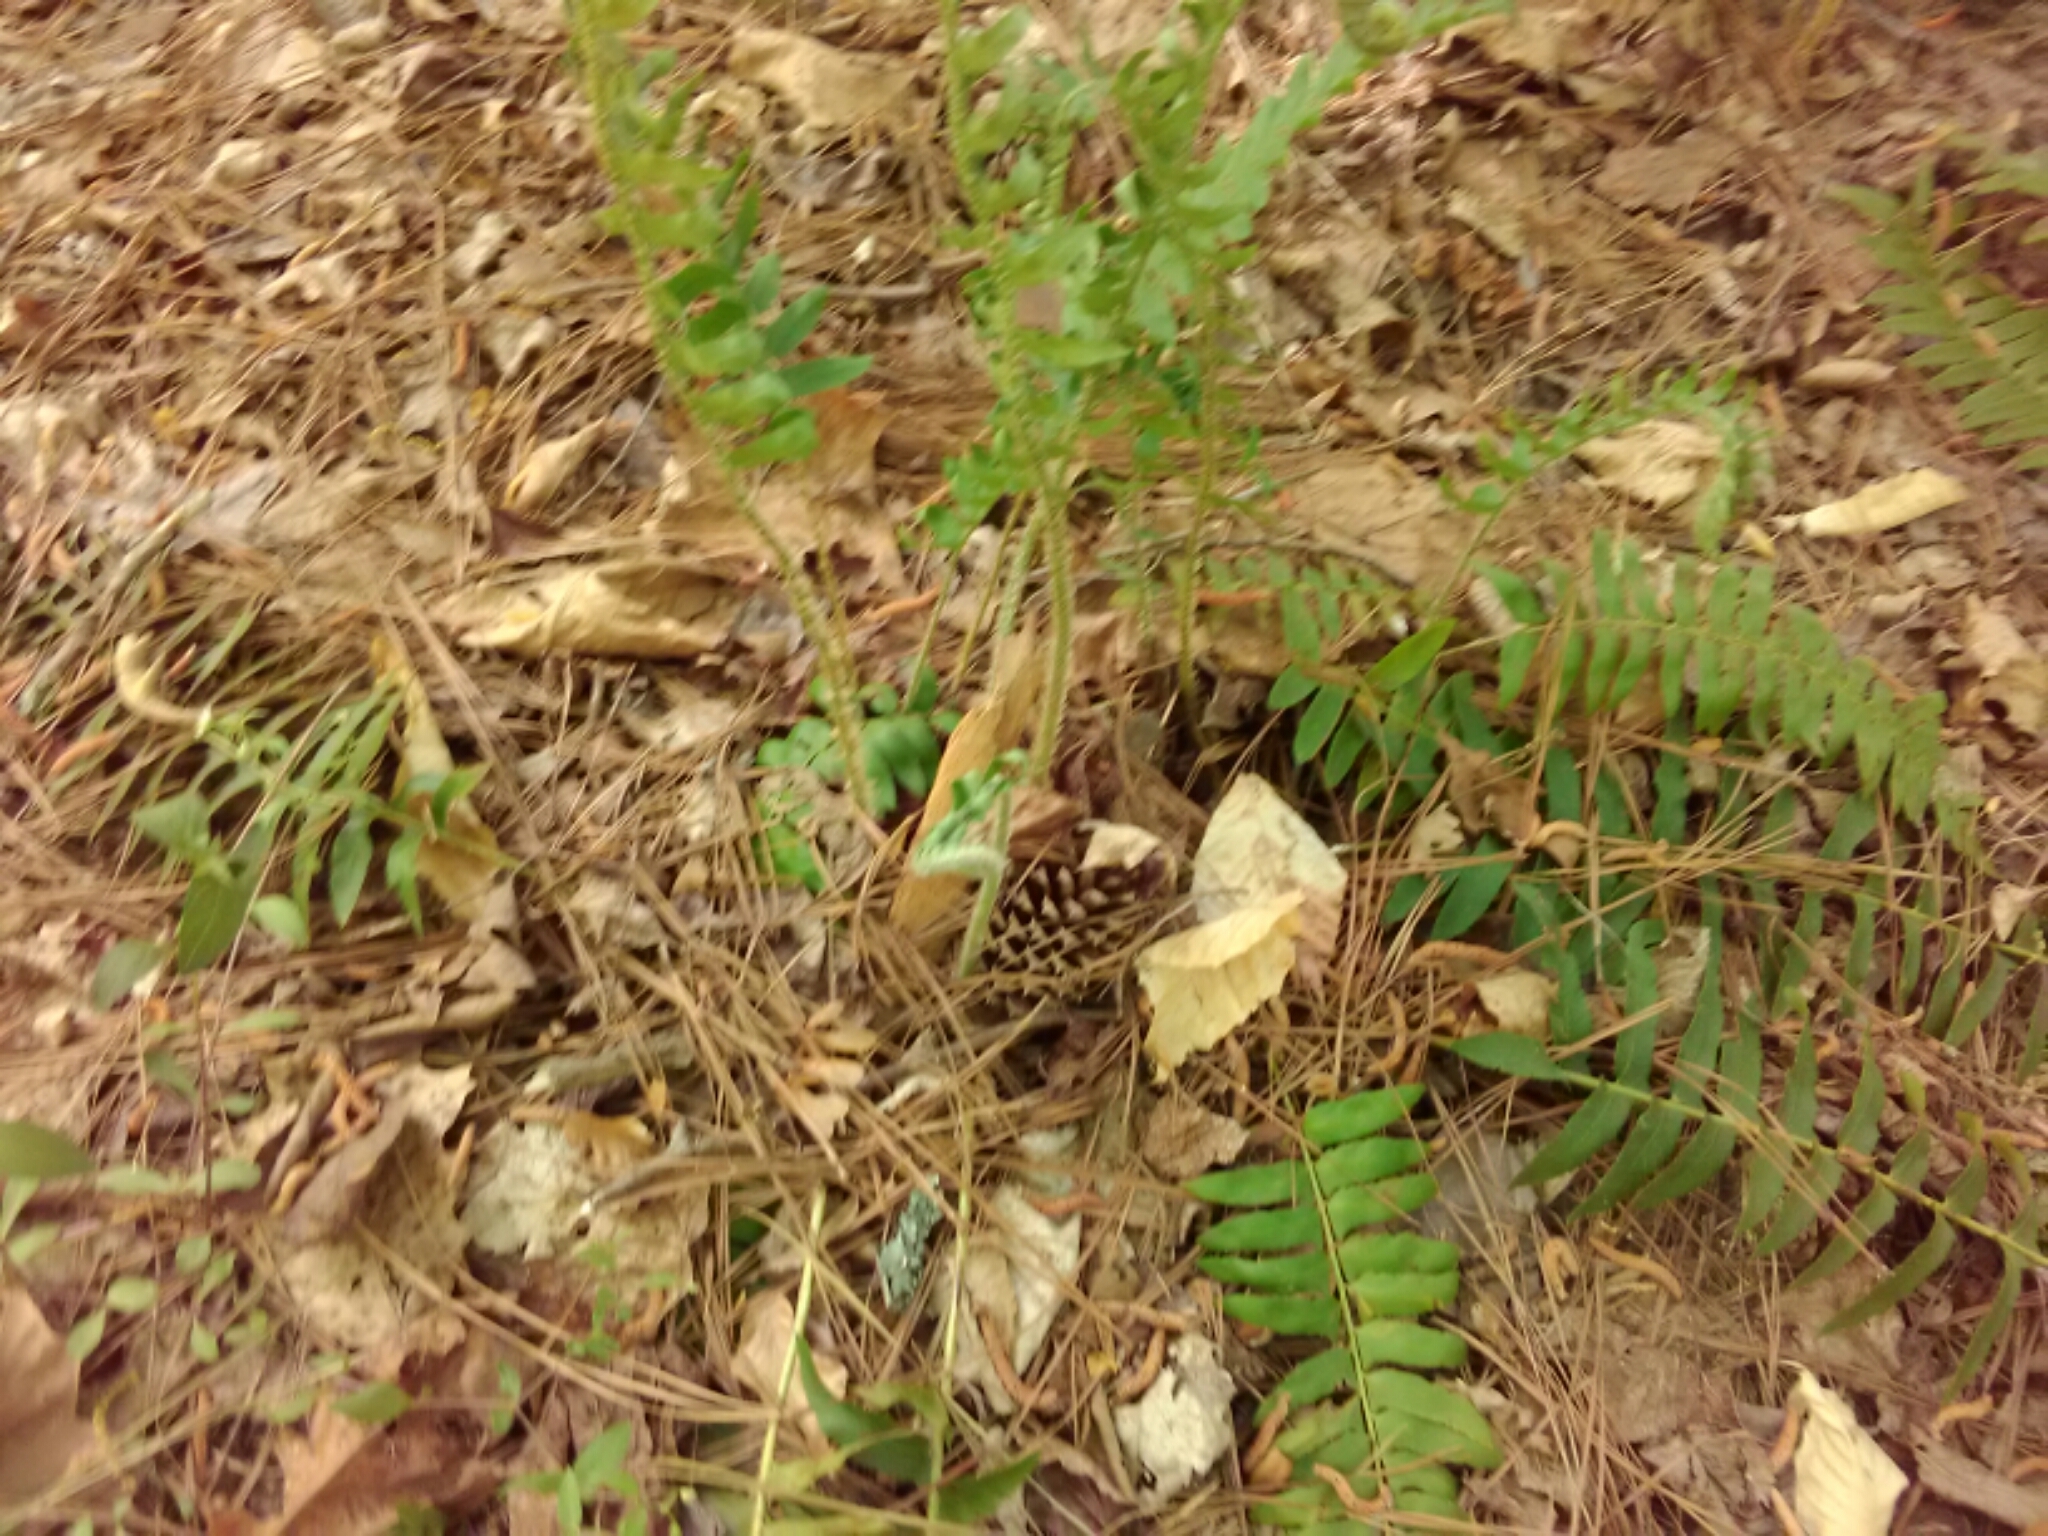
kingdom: Plantae
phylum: Tracheophyta
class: Polypodiopsida
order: Polypodiales
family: Dryopteridaceae
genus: Polystichum
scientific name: Polystichum acrostichoides
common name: Christmas fern
